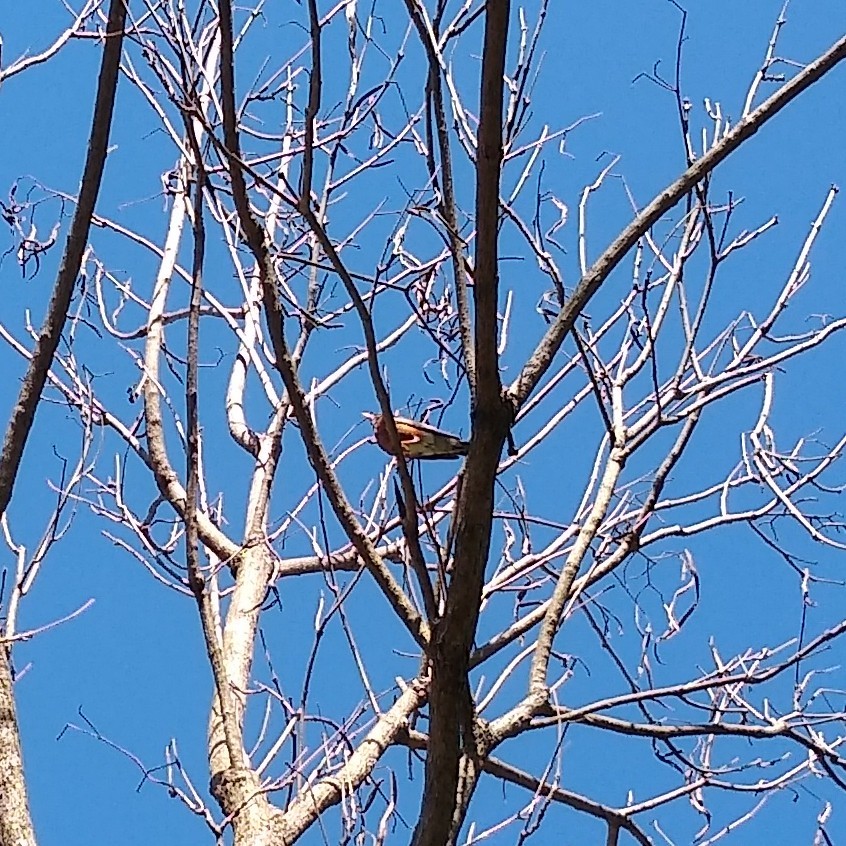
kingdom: Animalia
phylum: Chordata
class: Aves
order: Passeriformes
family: Turdidae
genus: Turdus
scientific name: Turdus migratorius
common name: American robin
